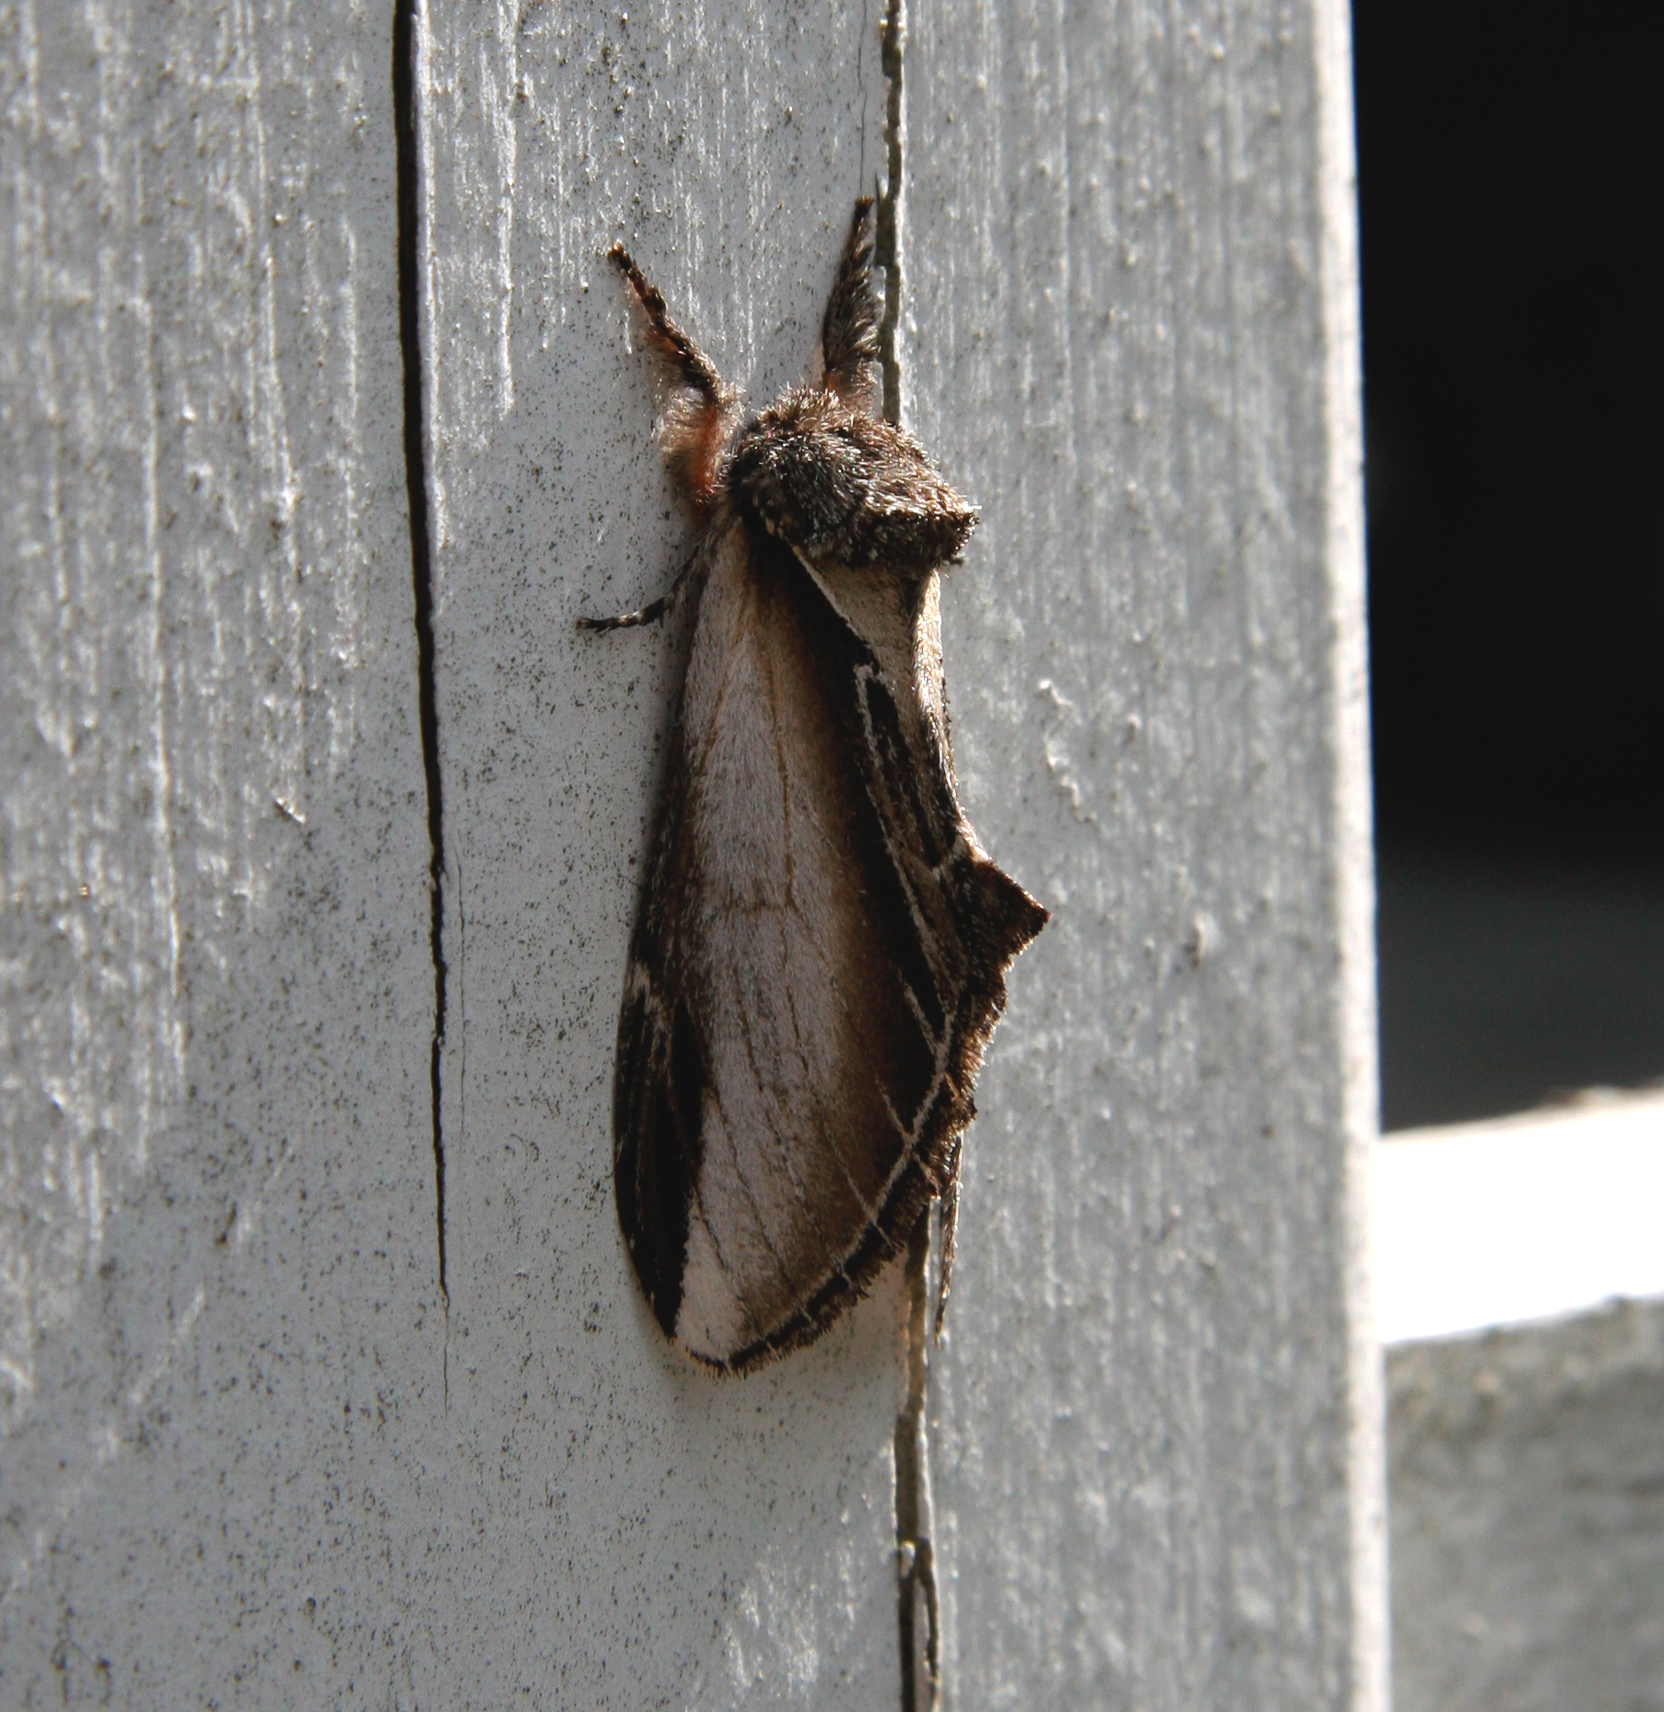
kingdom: Animalia
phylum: Arthropoda
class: Insecta
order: Lepidoptera
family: Notodontidae
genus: Pheosia
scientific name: Pheosia rimosa
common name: Black-rimmed prominent
